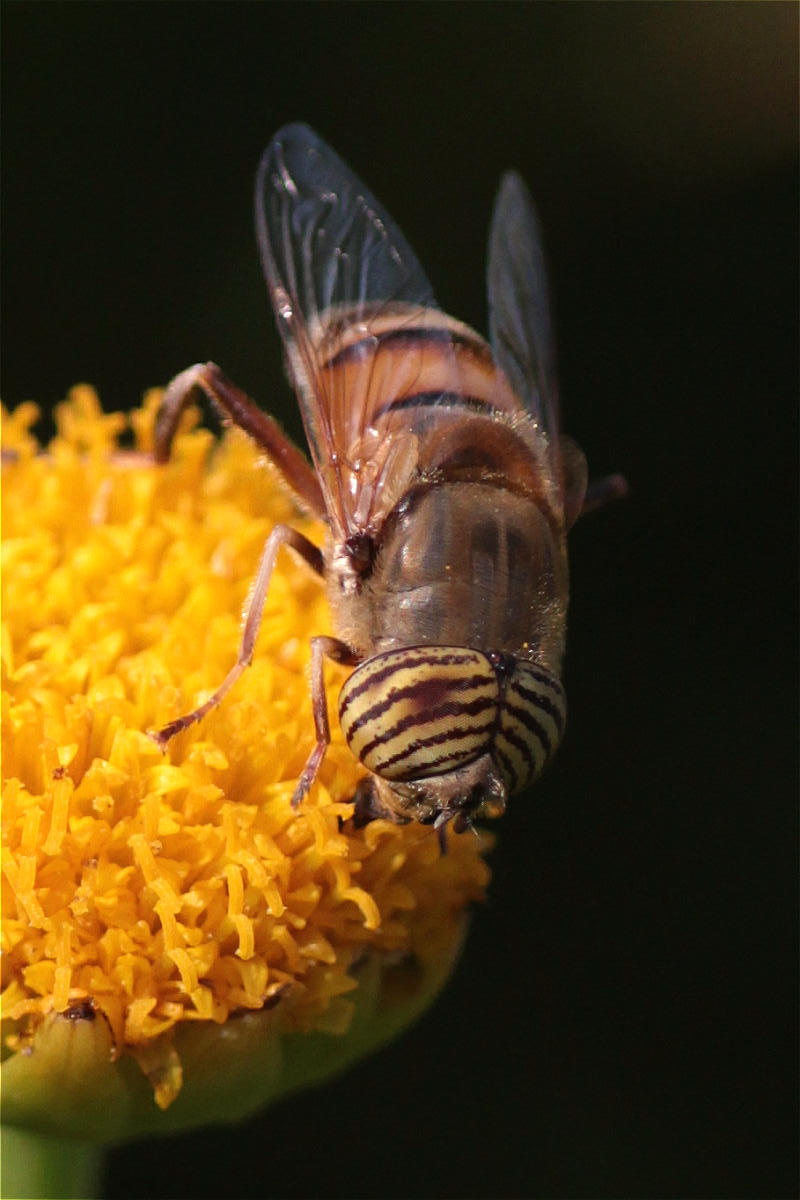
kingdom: Animalia
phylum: Arthropoda
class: Insecta
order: Diptera
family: Syrphidae
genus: Eristalinus
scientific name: Eristalinus taeniops
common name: Syrphid fly
